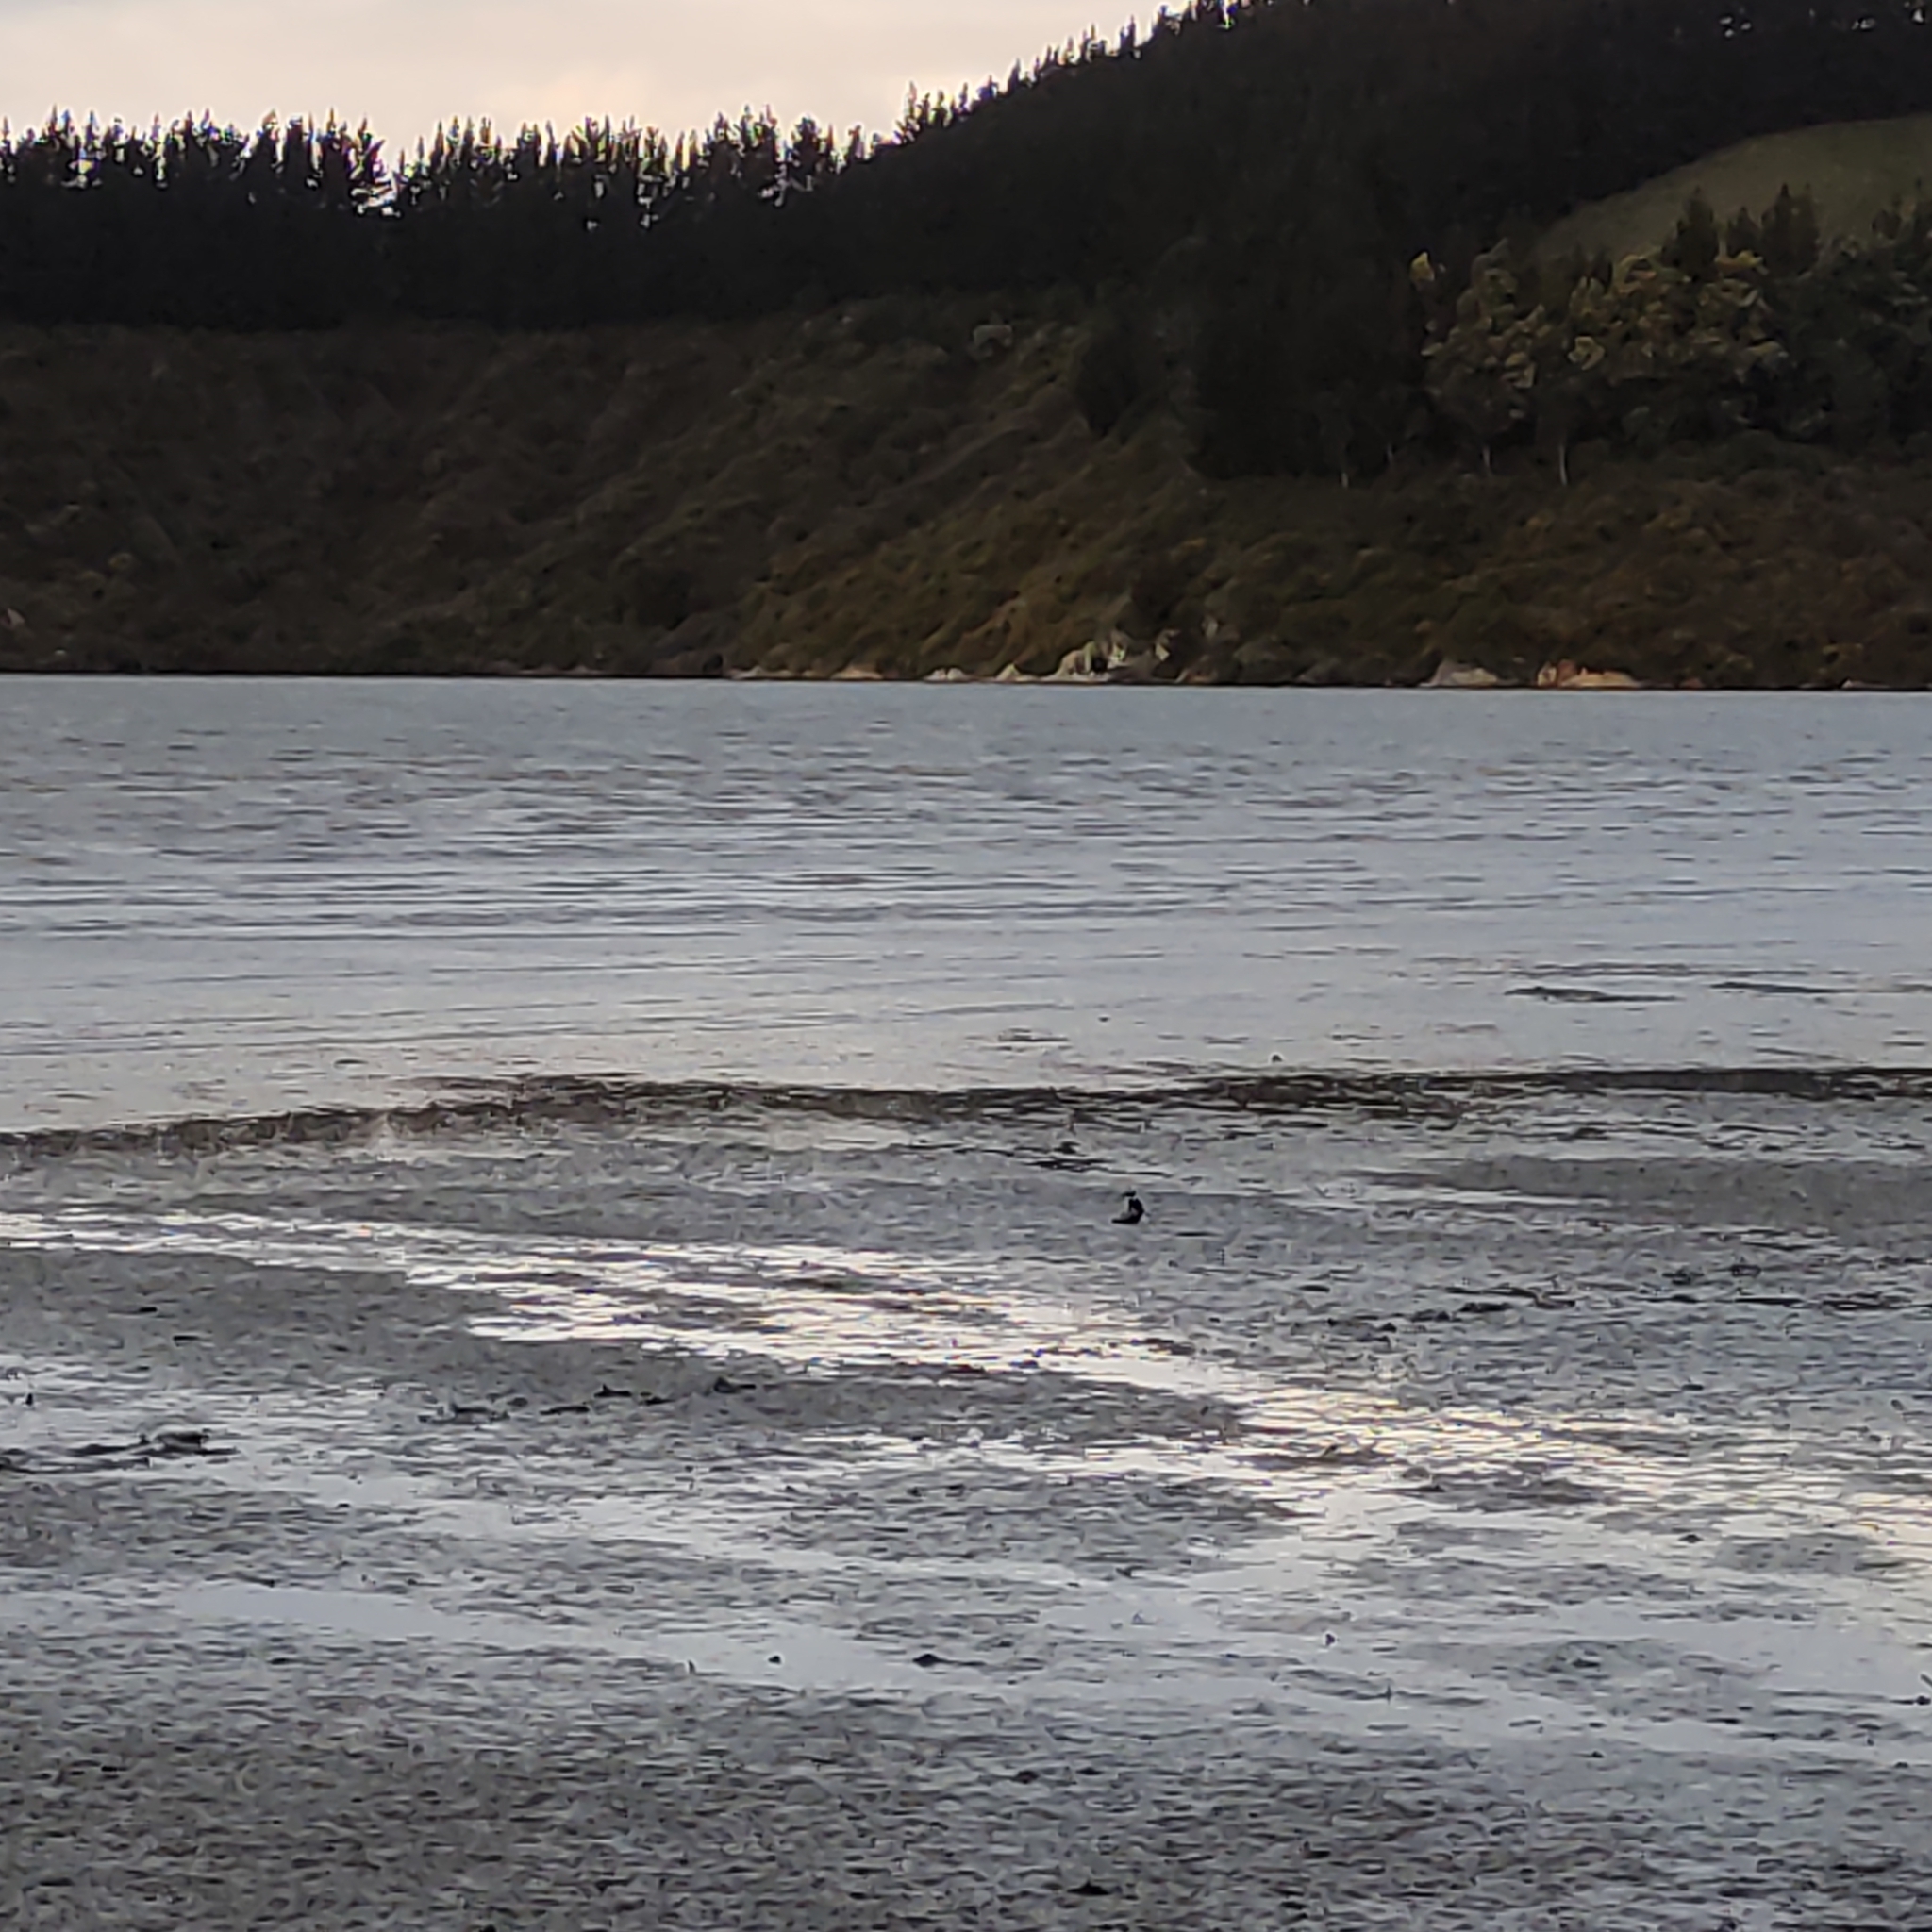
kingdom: Animalia
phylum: Chordata
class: Aves
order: Coraciiformes
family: Alcedinidae
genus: Todiramphus
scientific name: Todiramphus sanctus
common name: Sacred kingfisher
